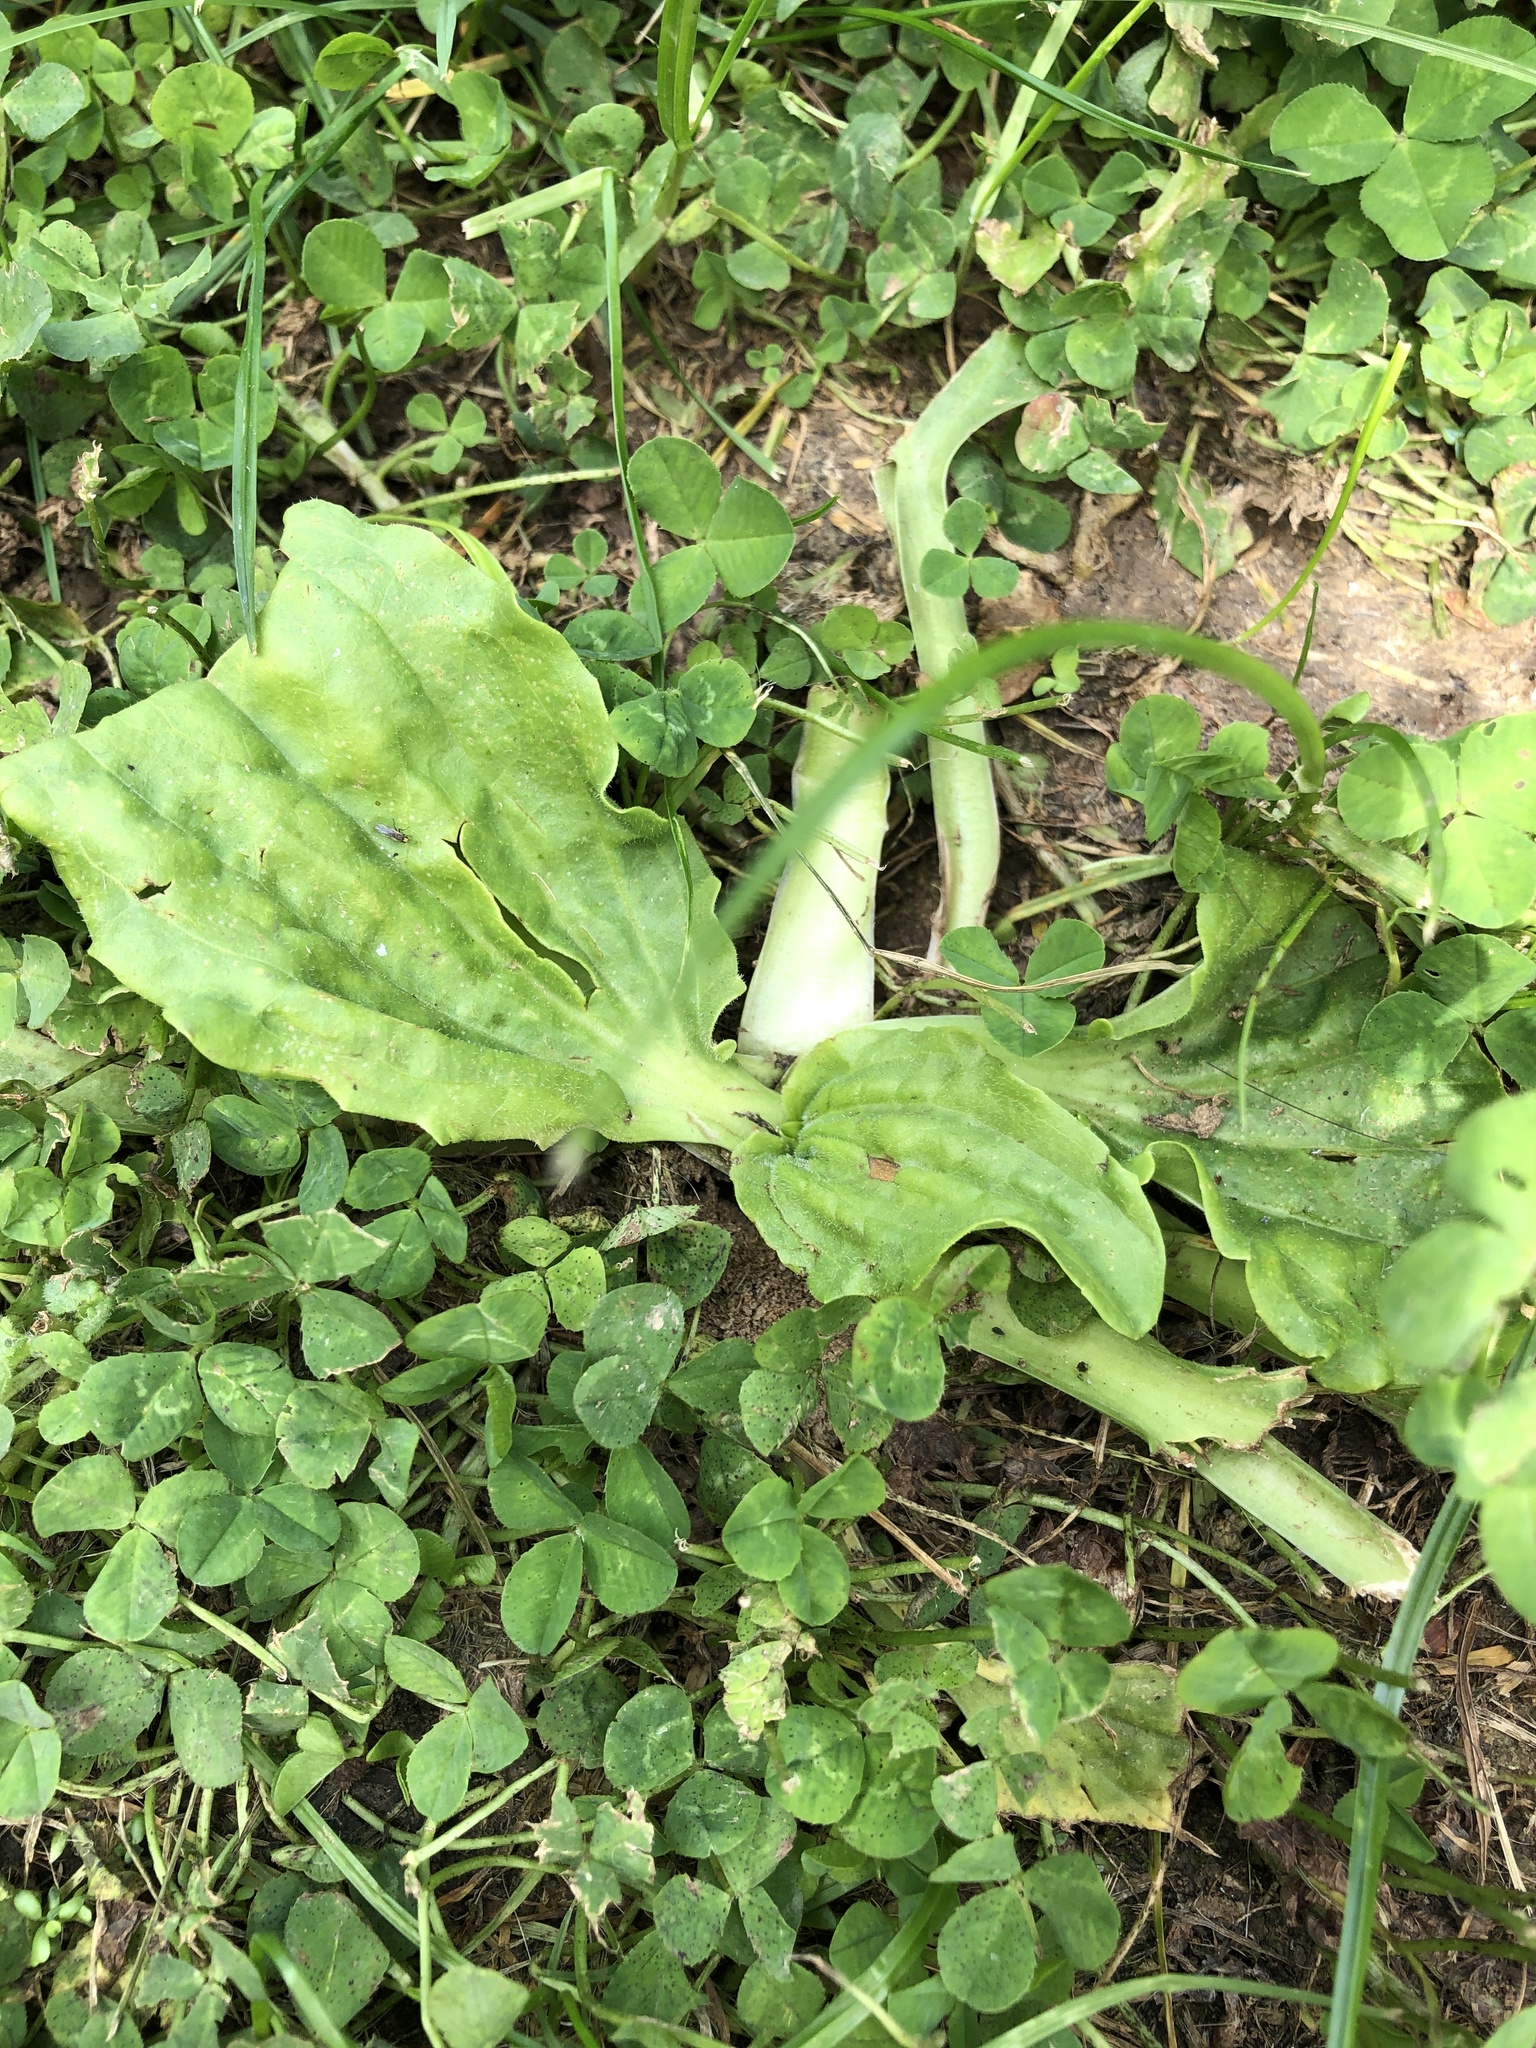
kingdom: Plantae
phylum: Tracheophyta
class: Magnoliopsida
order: Lamiales
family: Plantaginaceae
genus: Plantago
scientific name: Plantago major
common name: Common plantain
